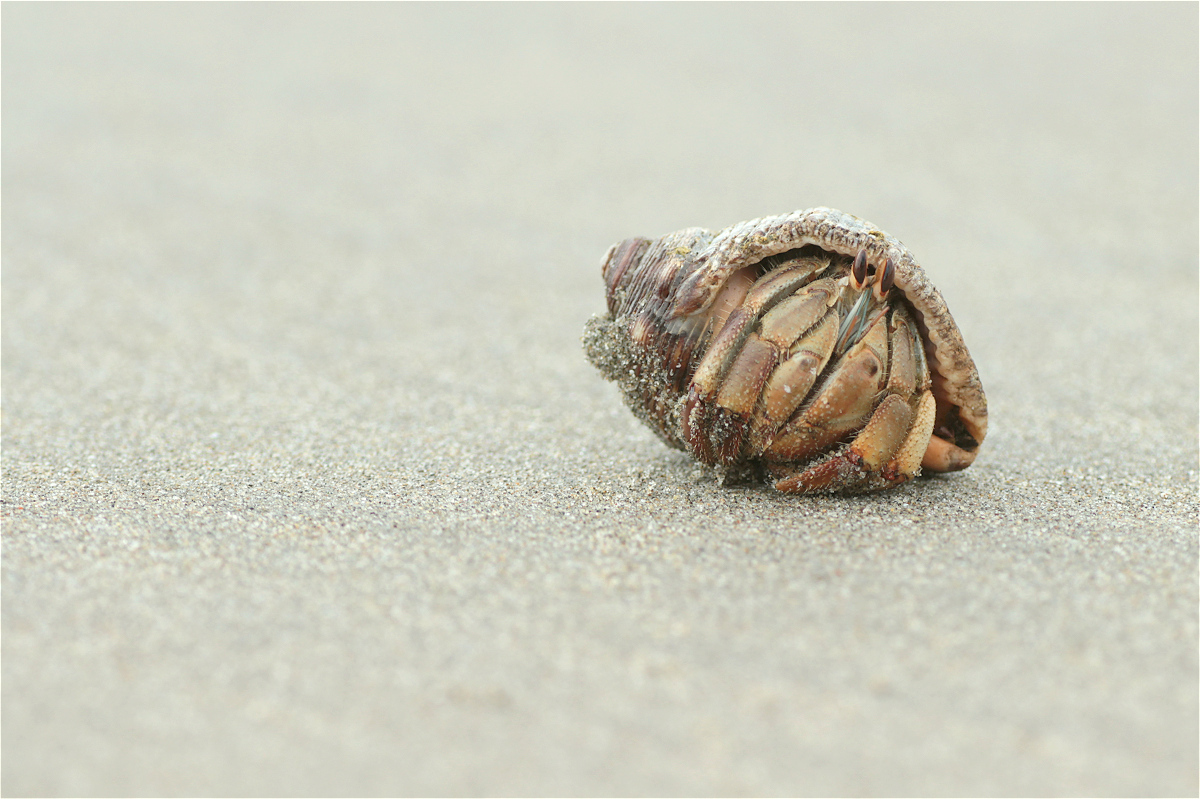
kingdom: Animalia
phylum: Arthropoda
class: Malacostraca
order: Decapoda
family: Coenobitidae
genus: Coenobita
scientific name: Coenobita compressus
